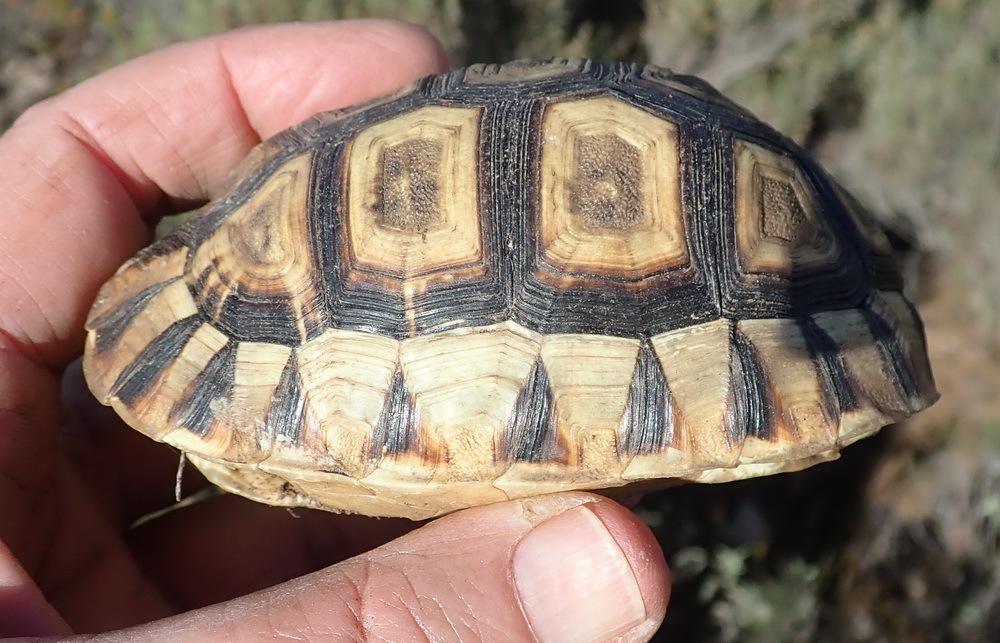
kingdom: Animalia
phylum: Chordata
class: Testudines
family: Testudinidae
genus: Chersina
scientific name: Chersina angulata
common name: South african bowsprit tortoise
